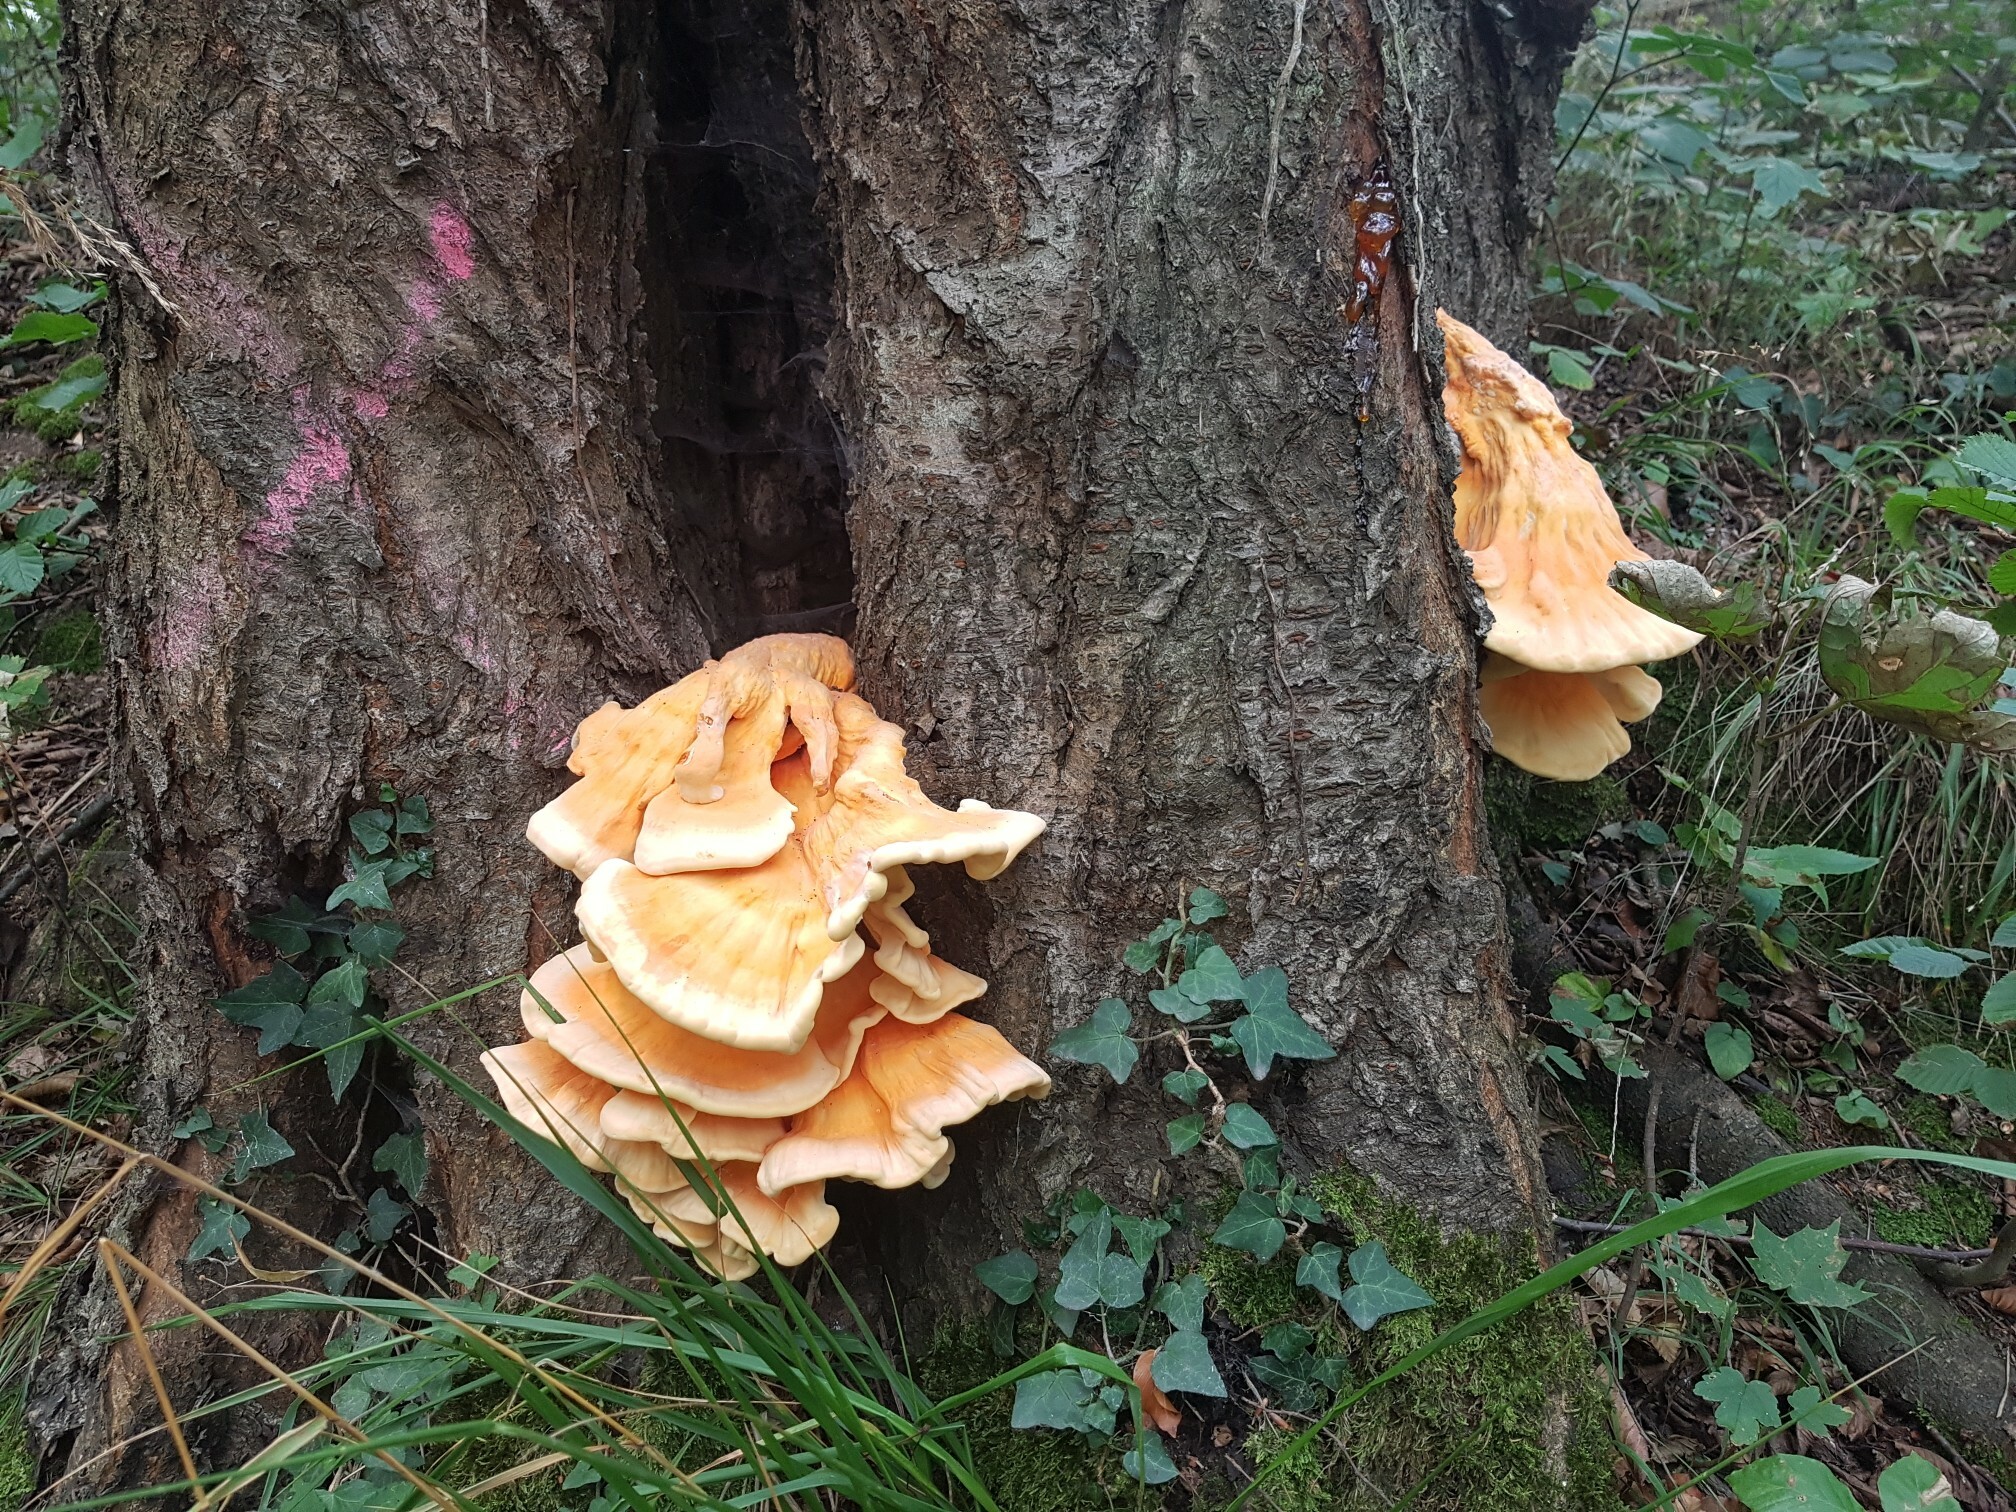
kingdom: Fungi
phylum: Basidiomycota
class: Agaricomycetes
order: Polyporales
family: Laetiporaceae
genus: Laetiporus
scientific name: Laetiporus sulphureus
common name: Chicken of the woods
